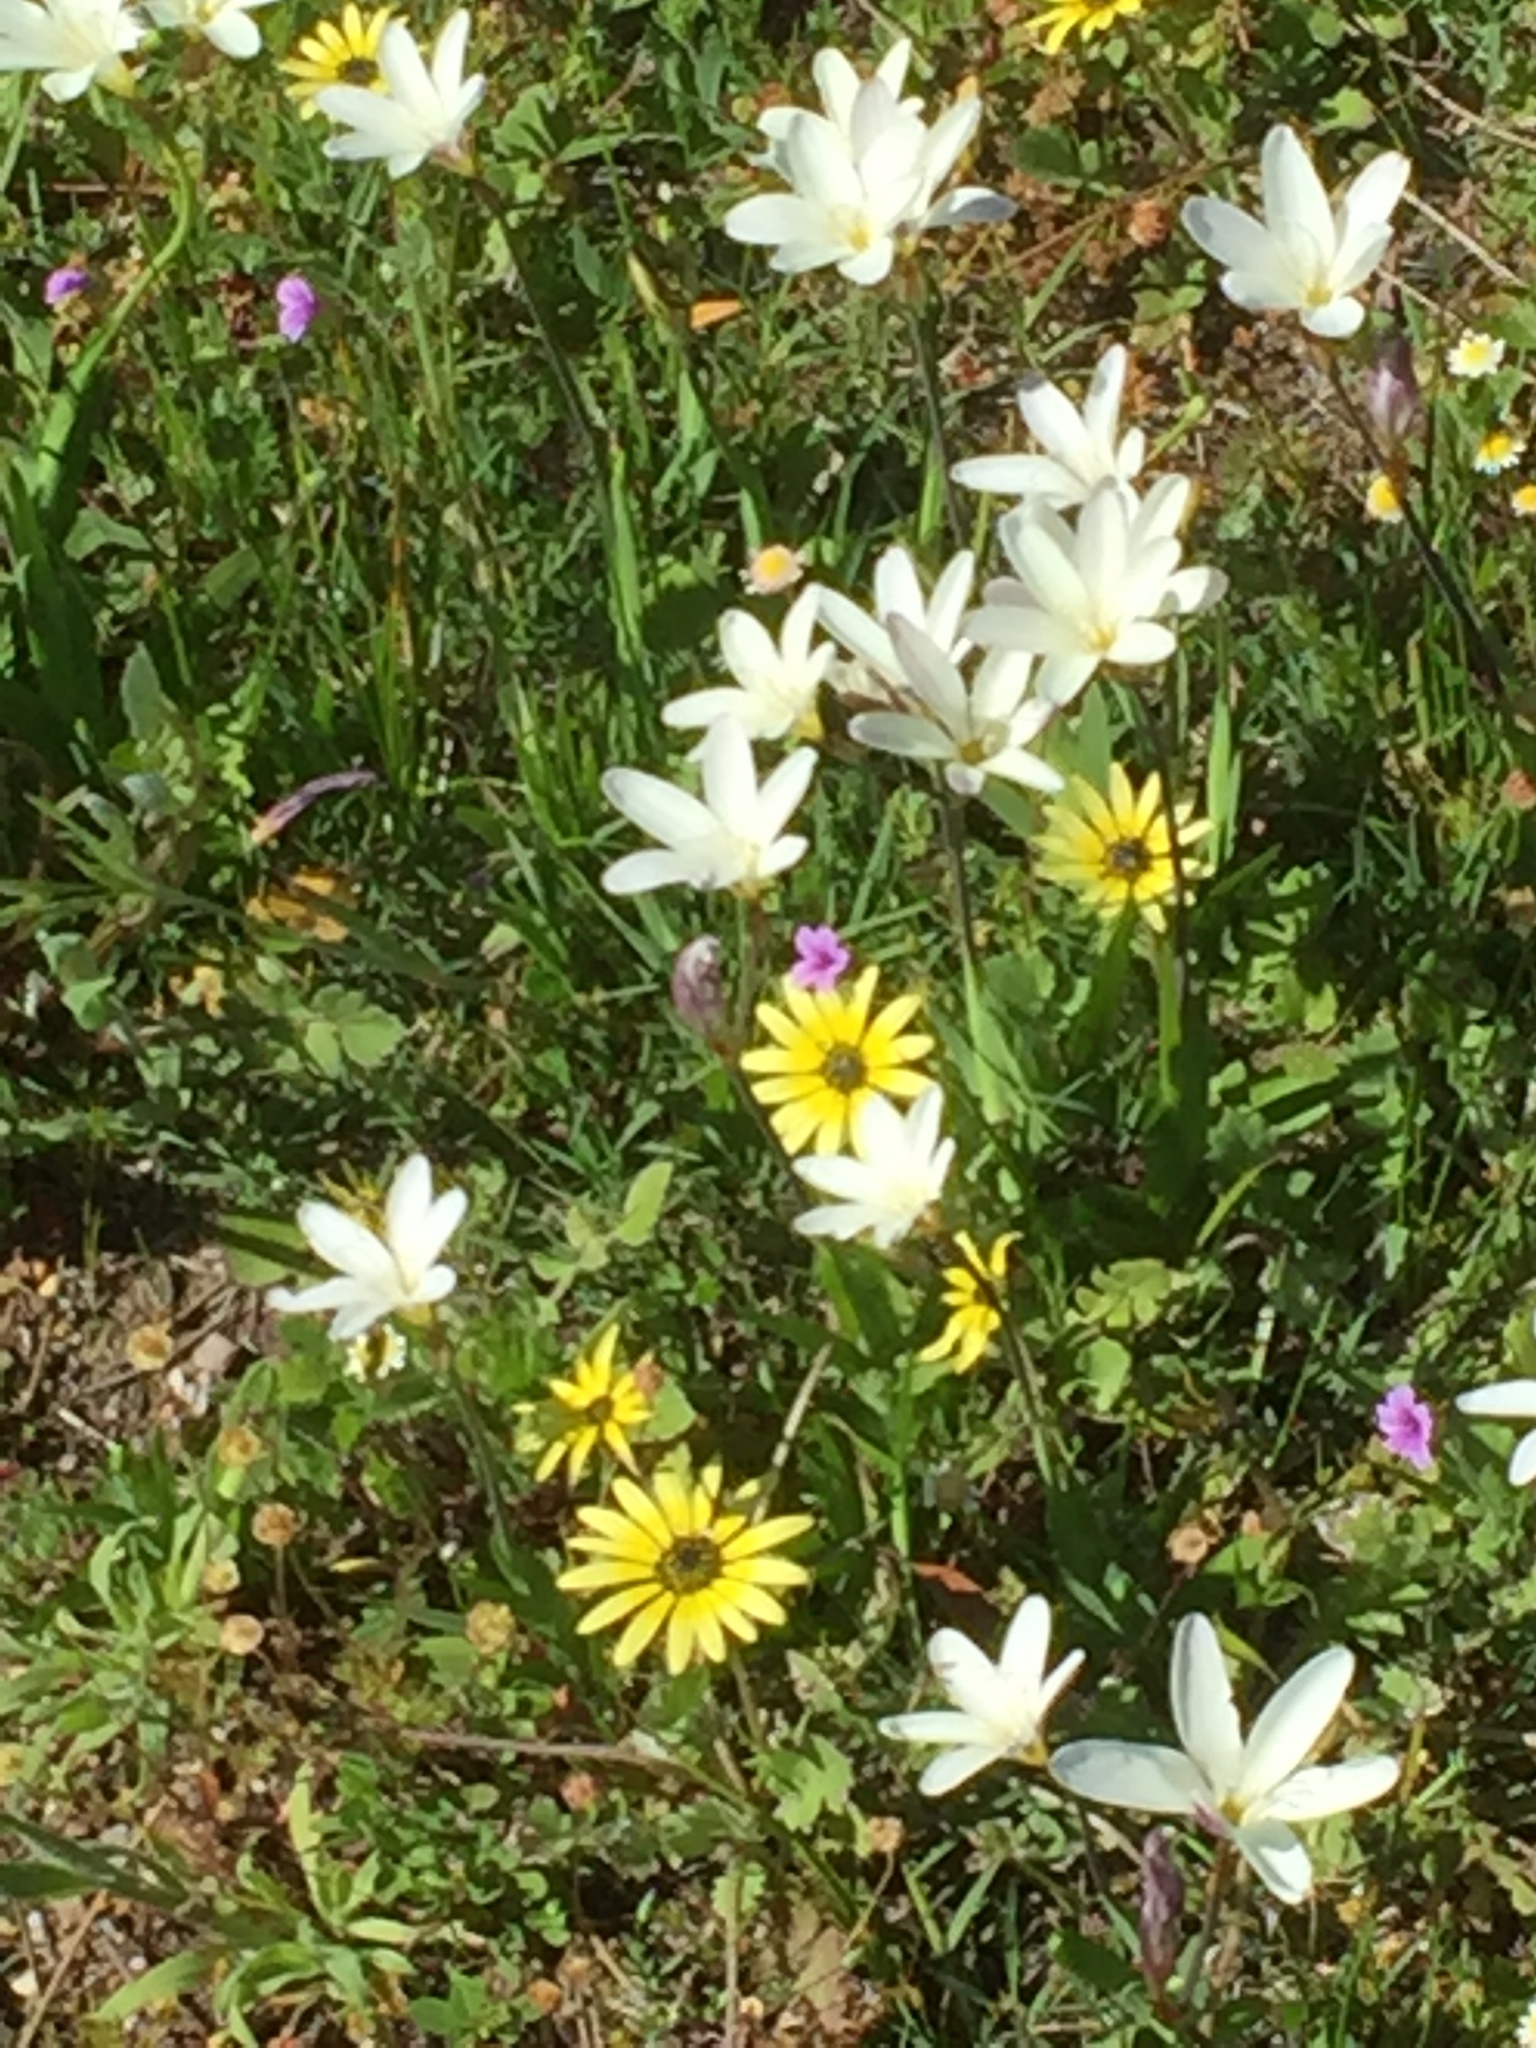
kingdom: Plantae
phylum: Tracheophyta
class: Liliopsida
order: Asparagales
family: Iridaceae
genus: Sparaxis
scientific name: Sparaxis bulbifera
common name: Harlequin-flower
